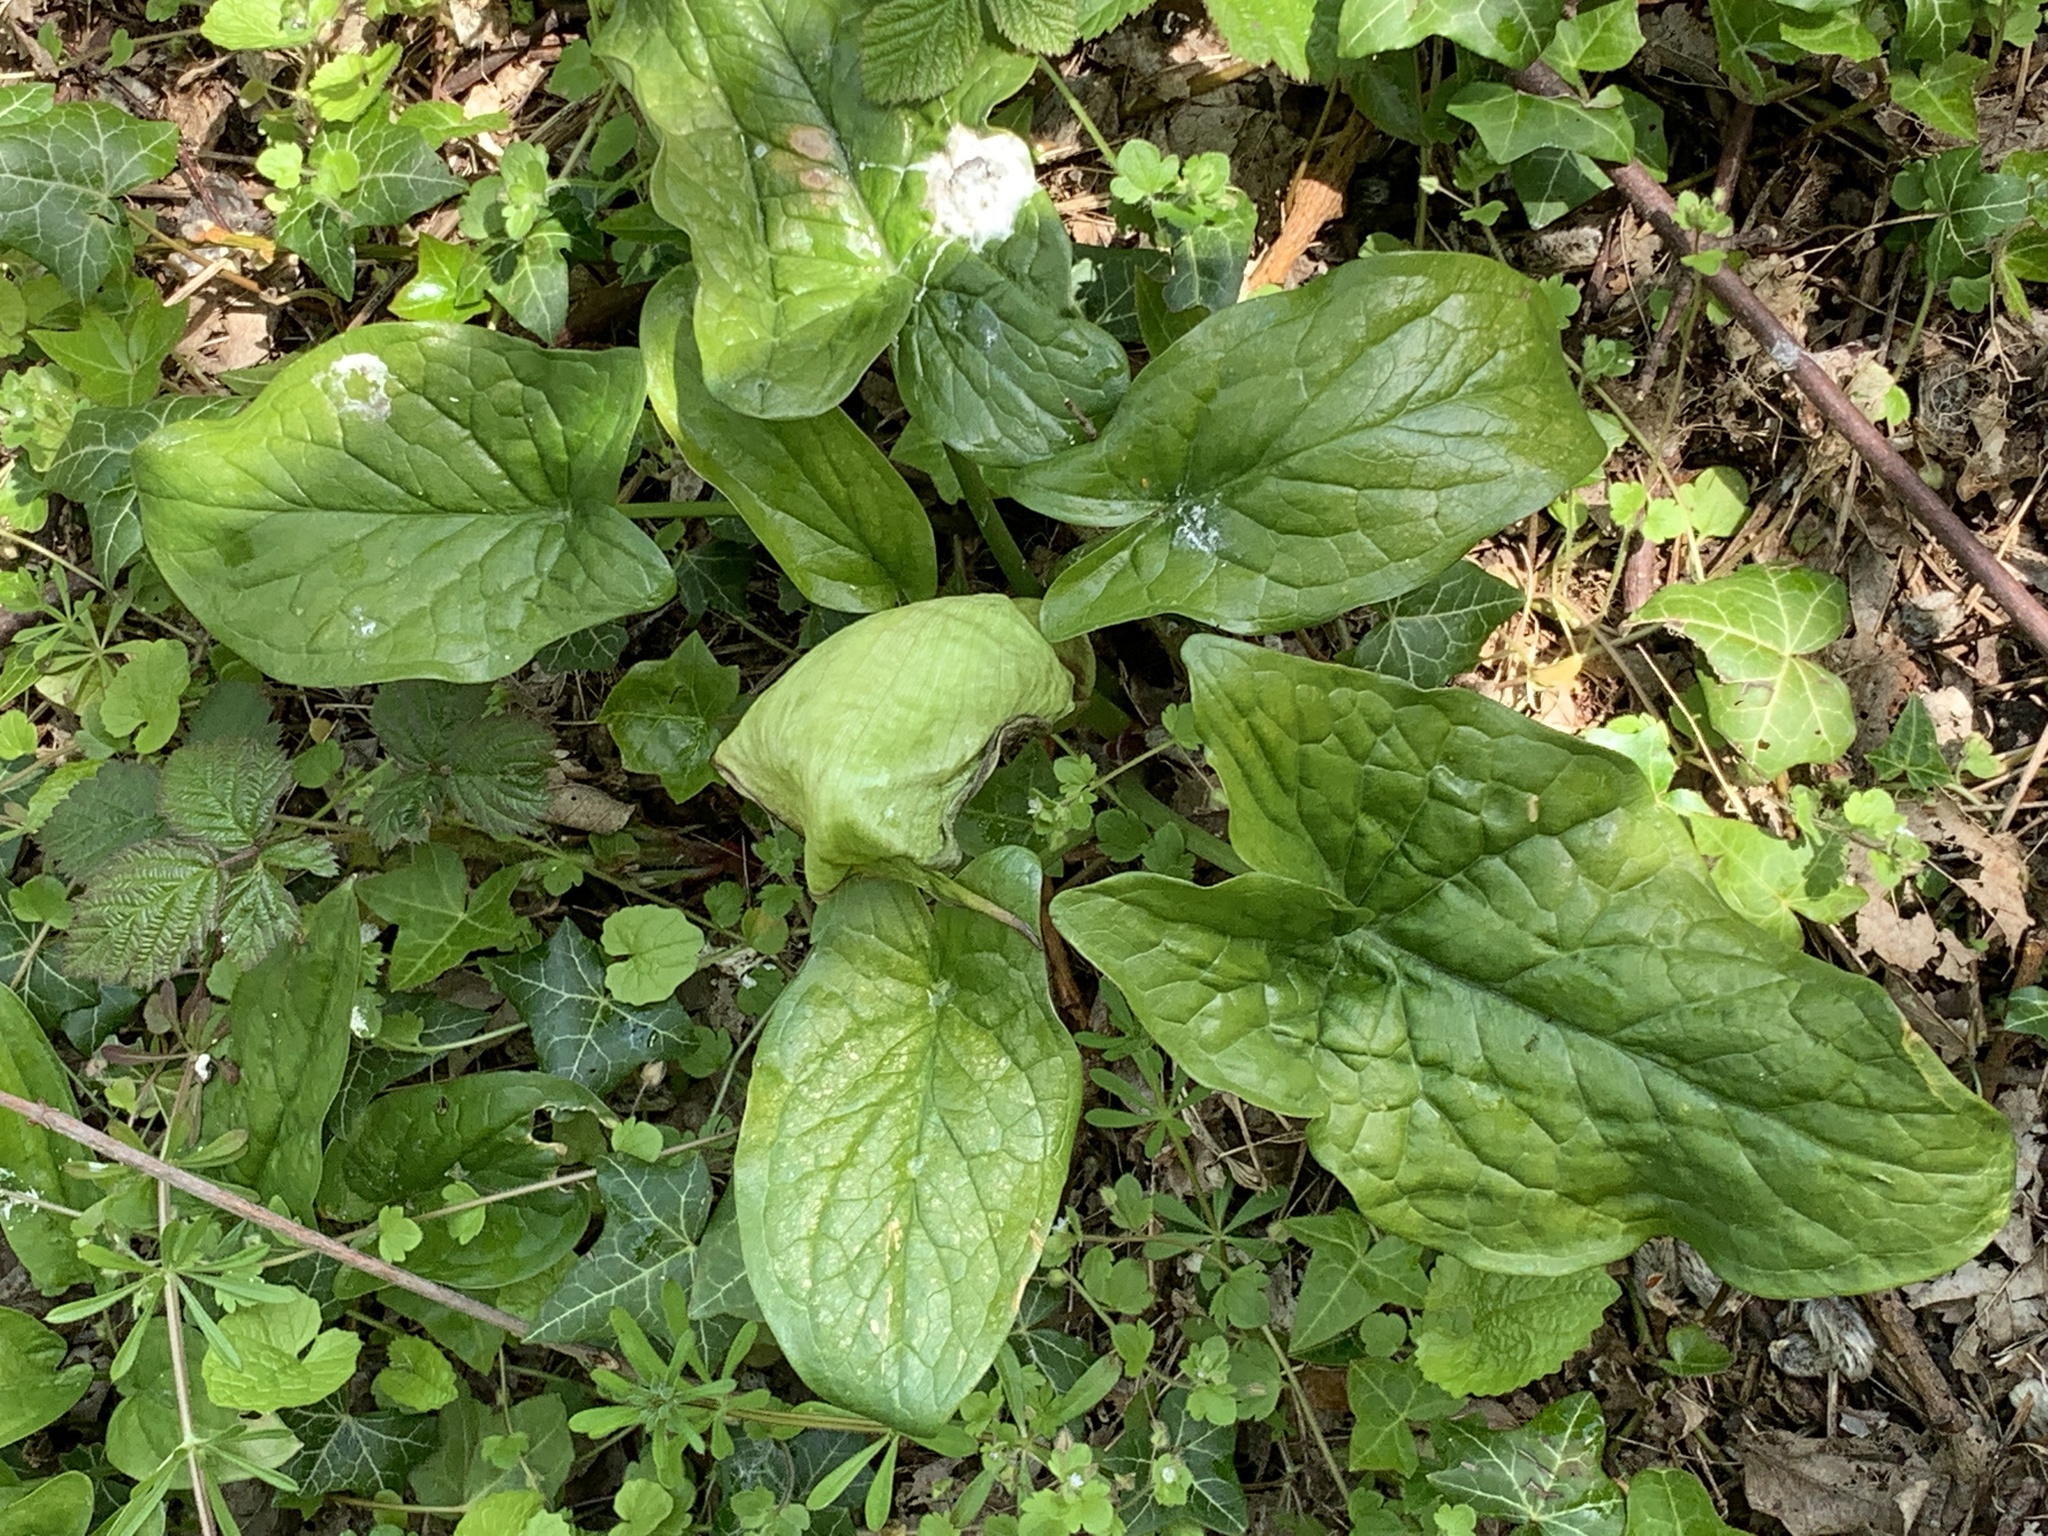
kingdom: Plantae
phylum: Tracheophyta
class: Liliopsida
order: Alismatales
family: Araceae
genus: Arum
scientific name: Arum italicum
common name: Italian lords-and-ladies
